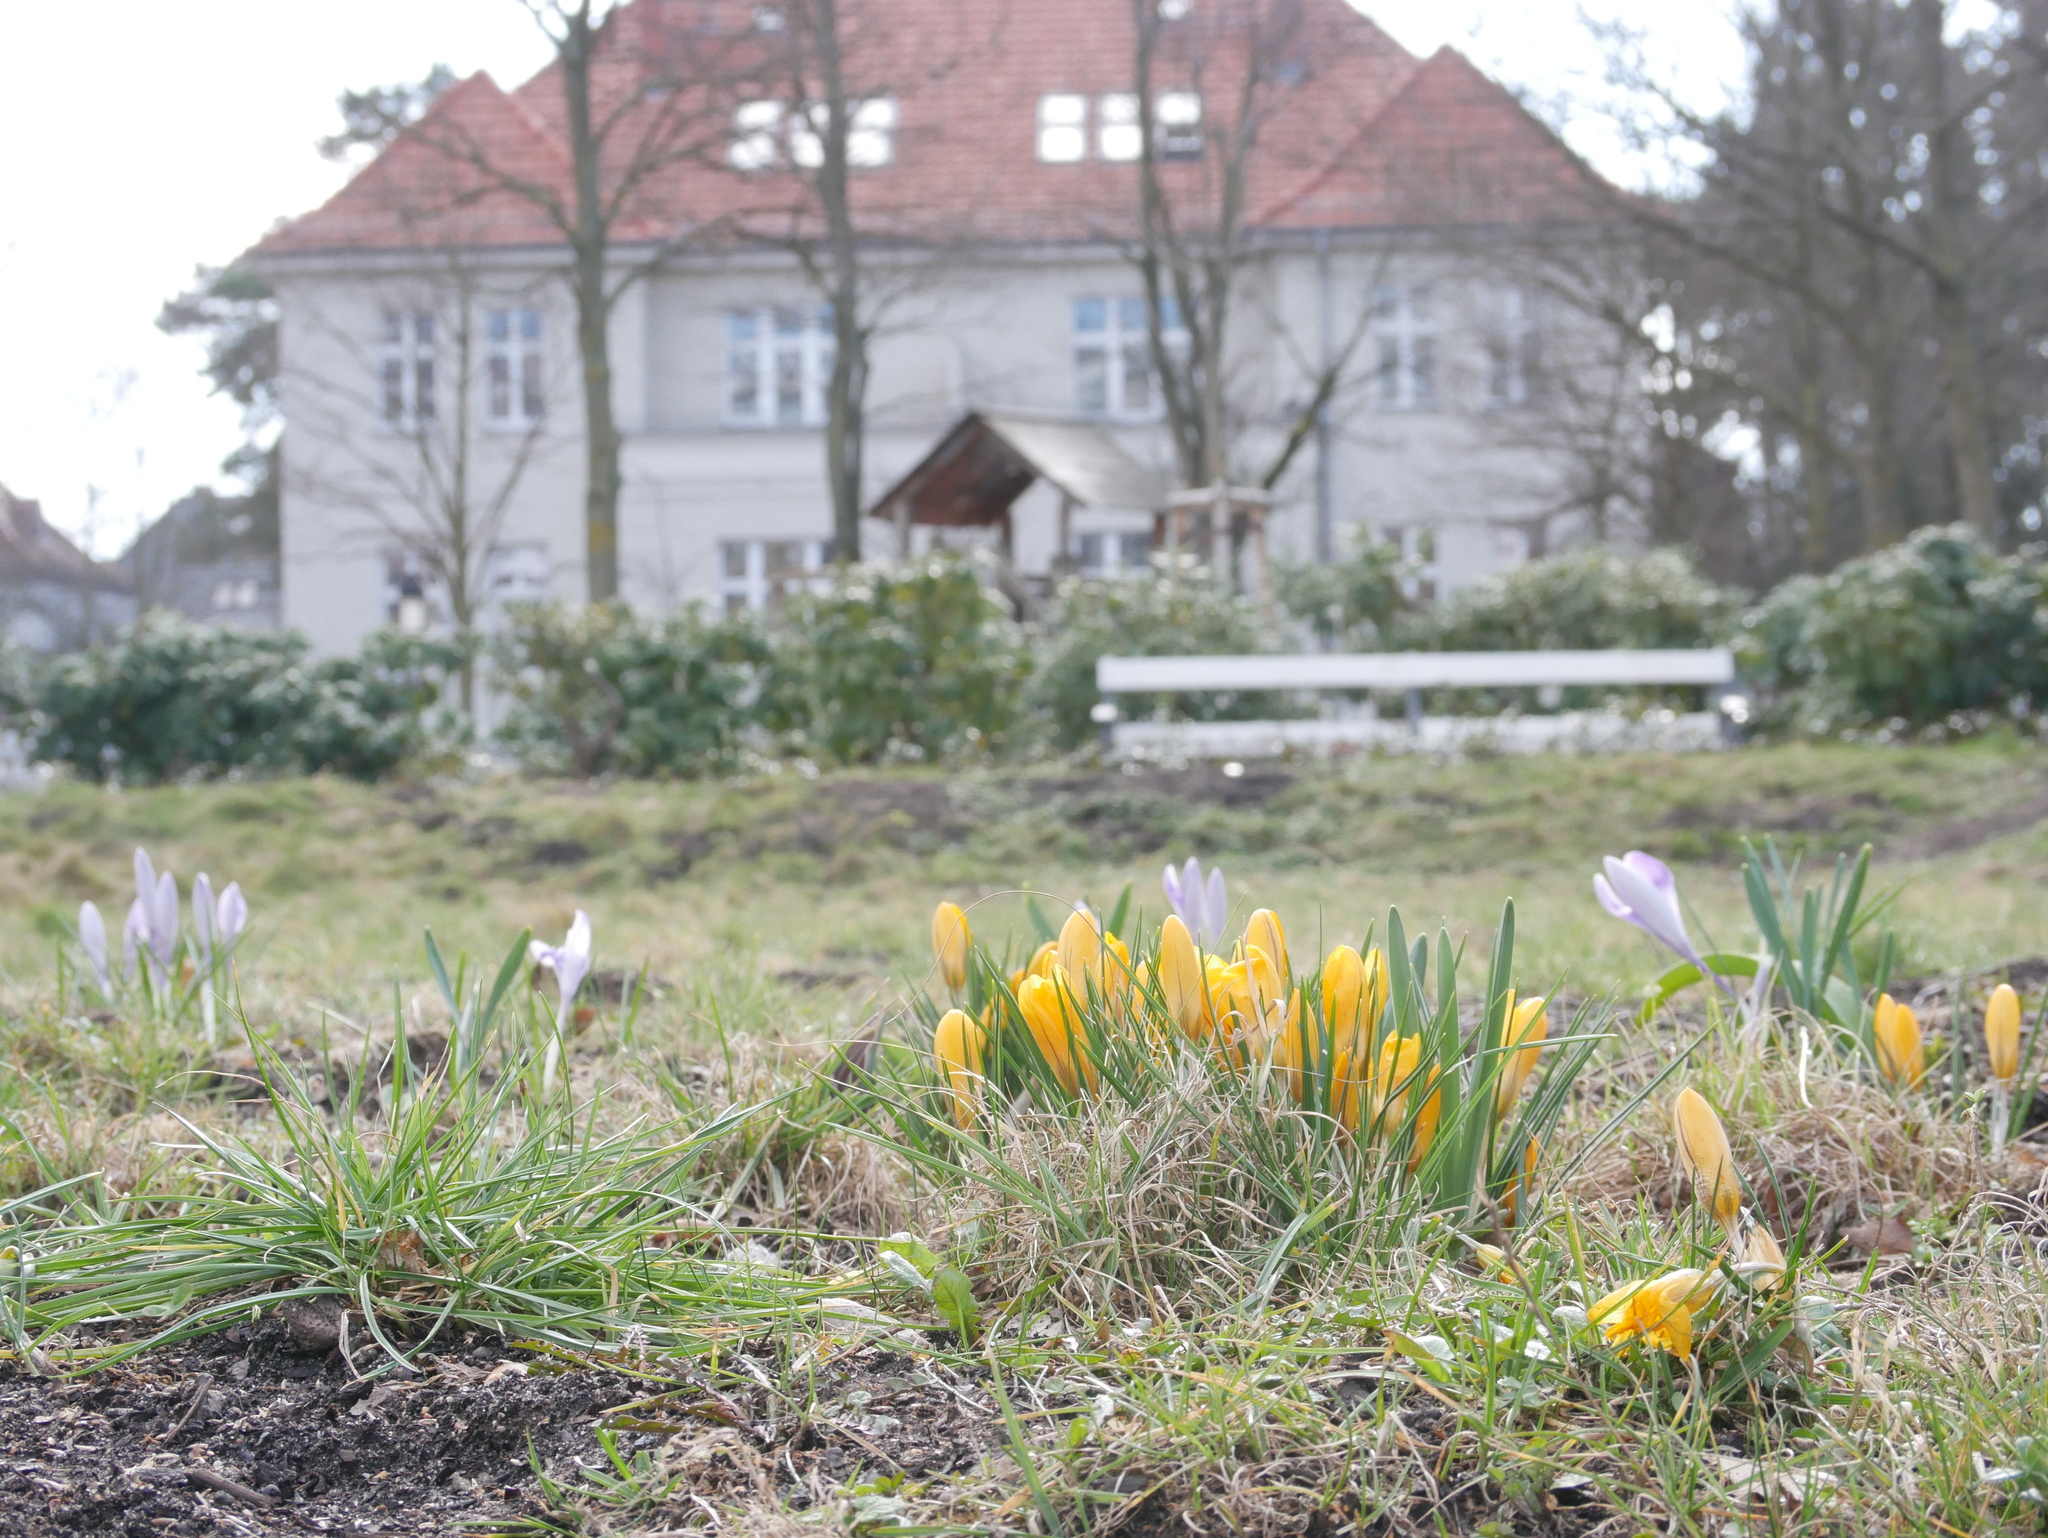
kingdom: Plantae
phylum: Tracheophyta
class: Liliopsida
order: Asparagales
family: Iridaceae
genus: Crocus
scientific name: Crocus luteus
